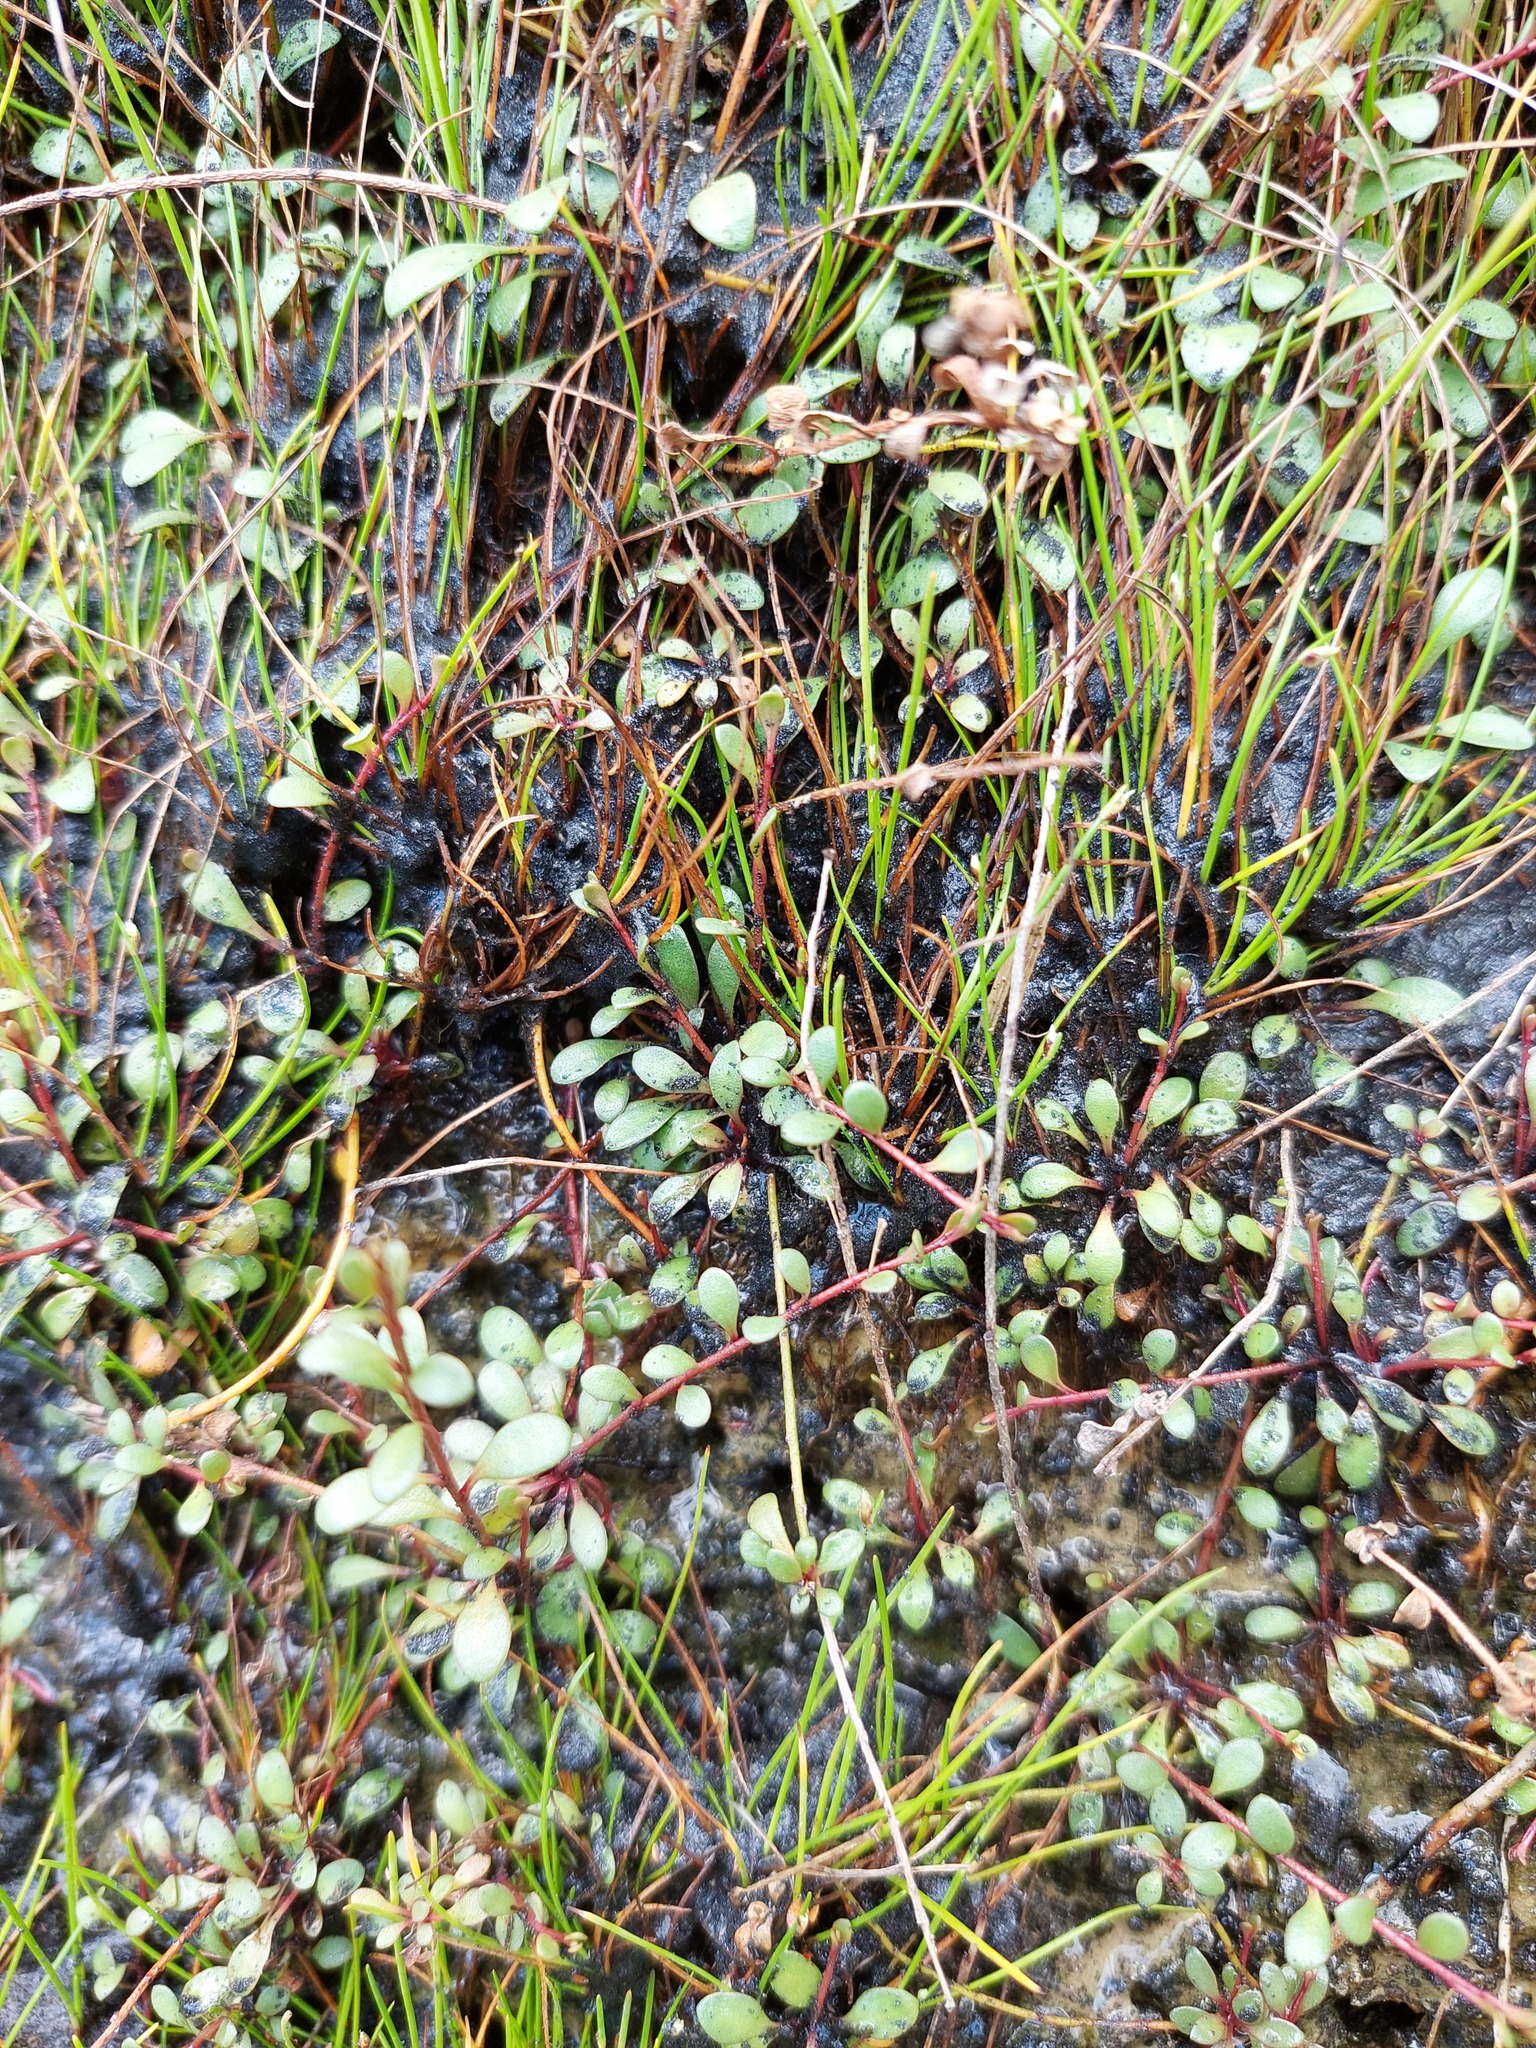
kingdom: Plantae
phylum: Tracheophyta
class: Magnoliopsida
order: Ericales
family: Primulaceae
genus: Samolus
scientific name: Samolus repens
